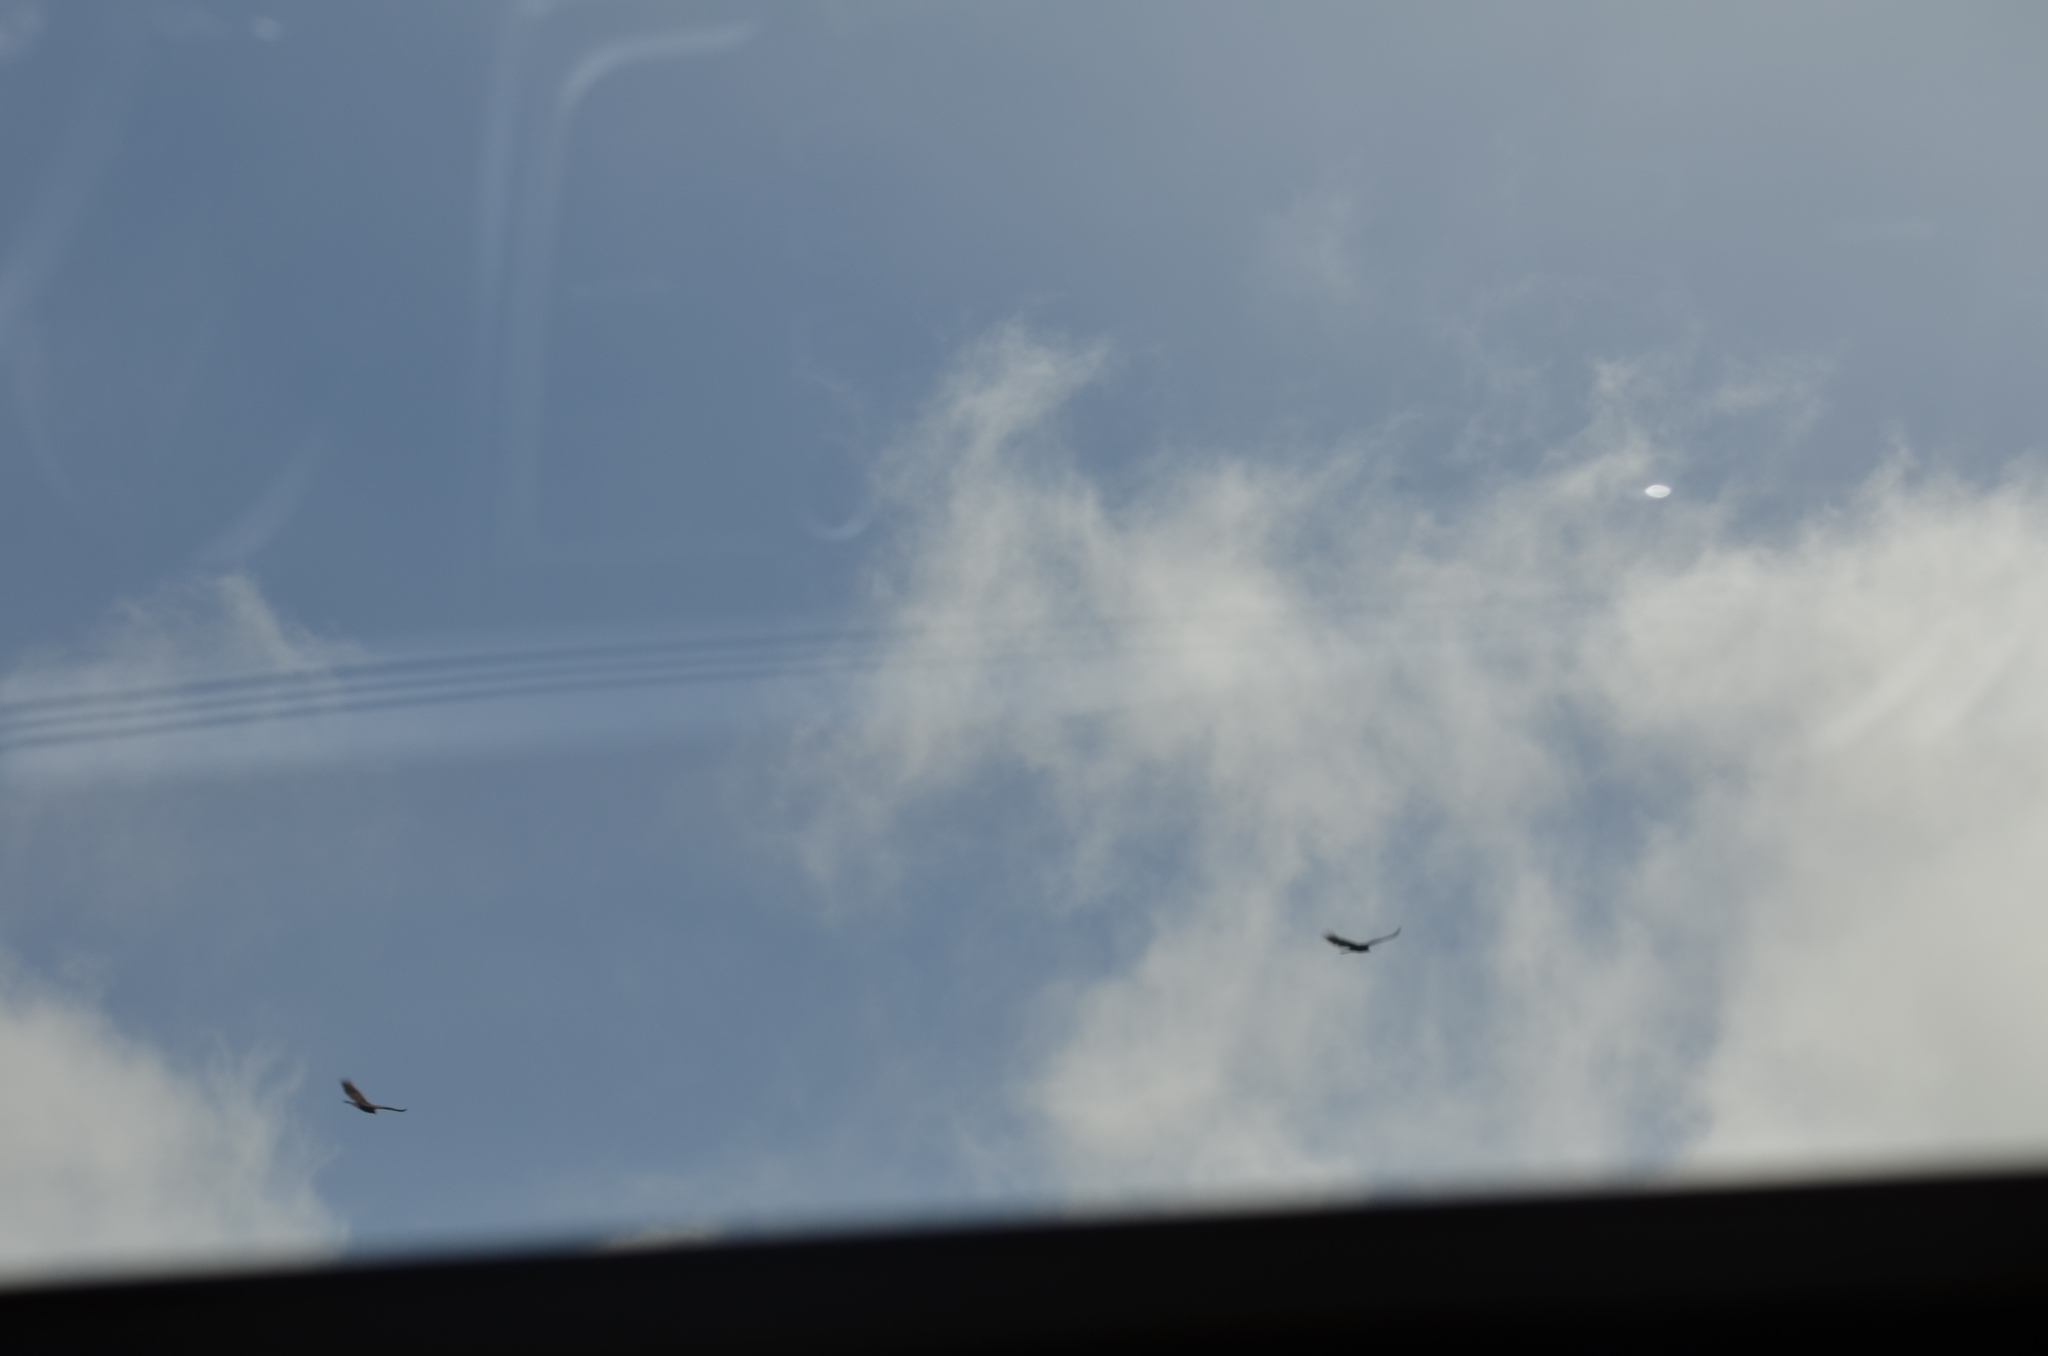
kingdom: Animalia
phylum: Chordata
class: Aves
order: Accipitriformes
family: Cathartidae
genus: Cathartes
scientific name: Cathartes aura
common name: Turkey vulture
